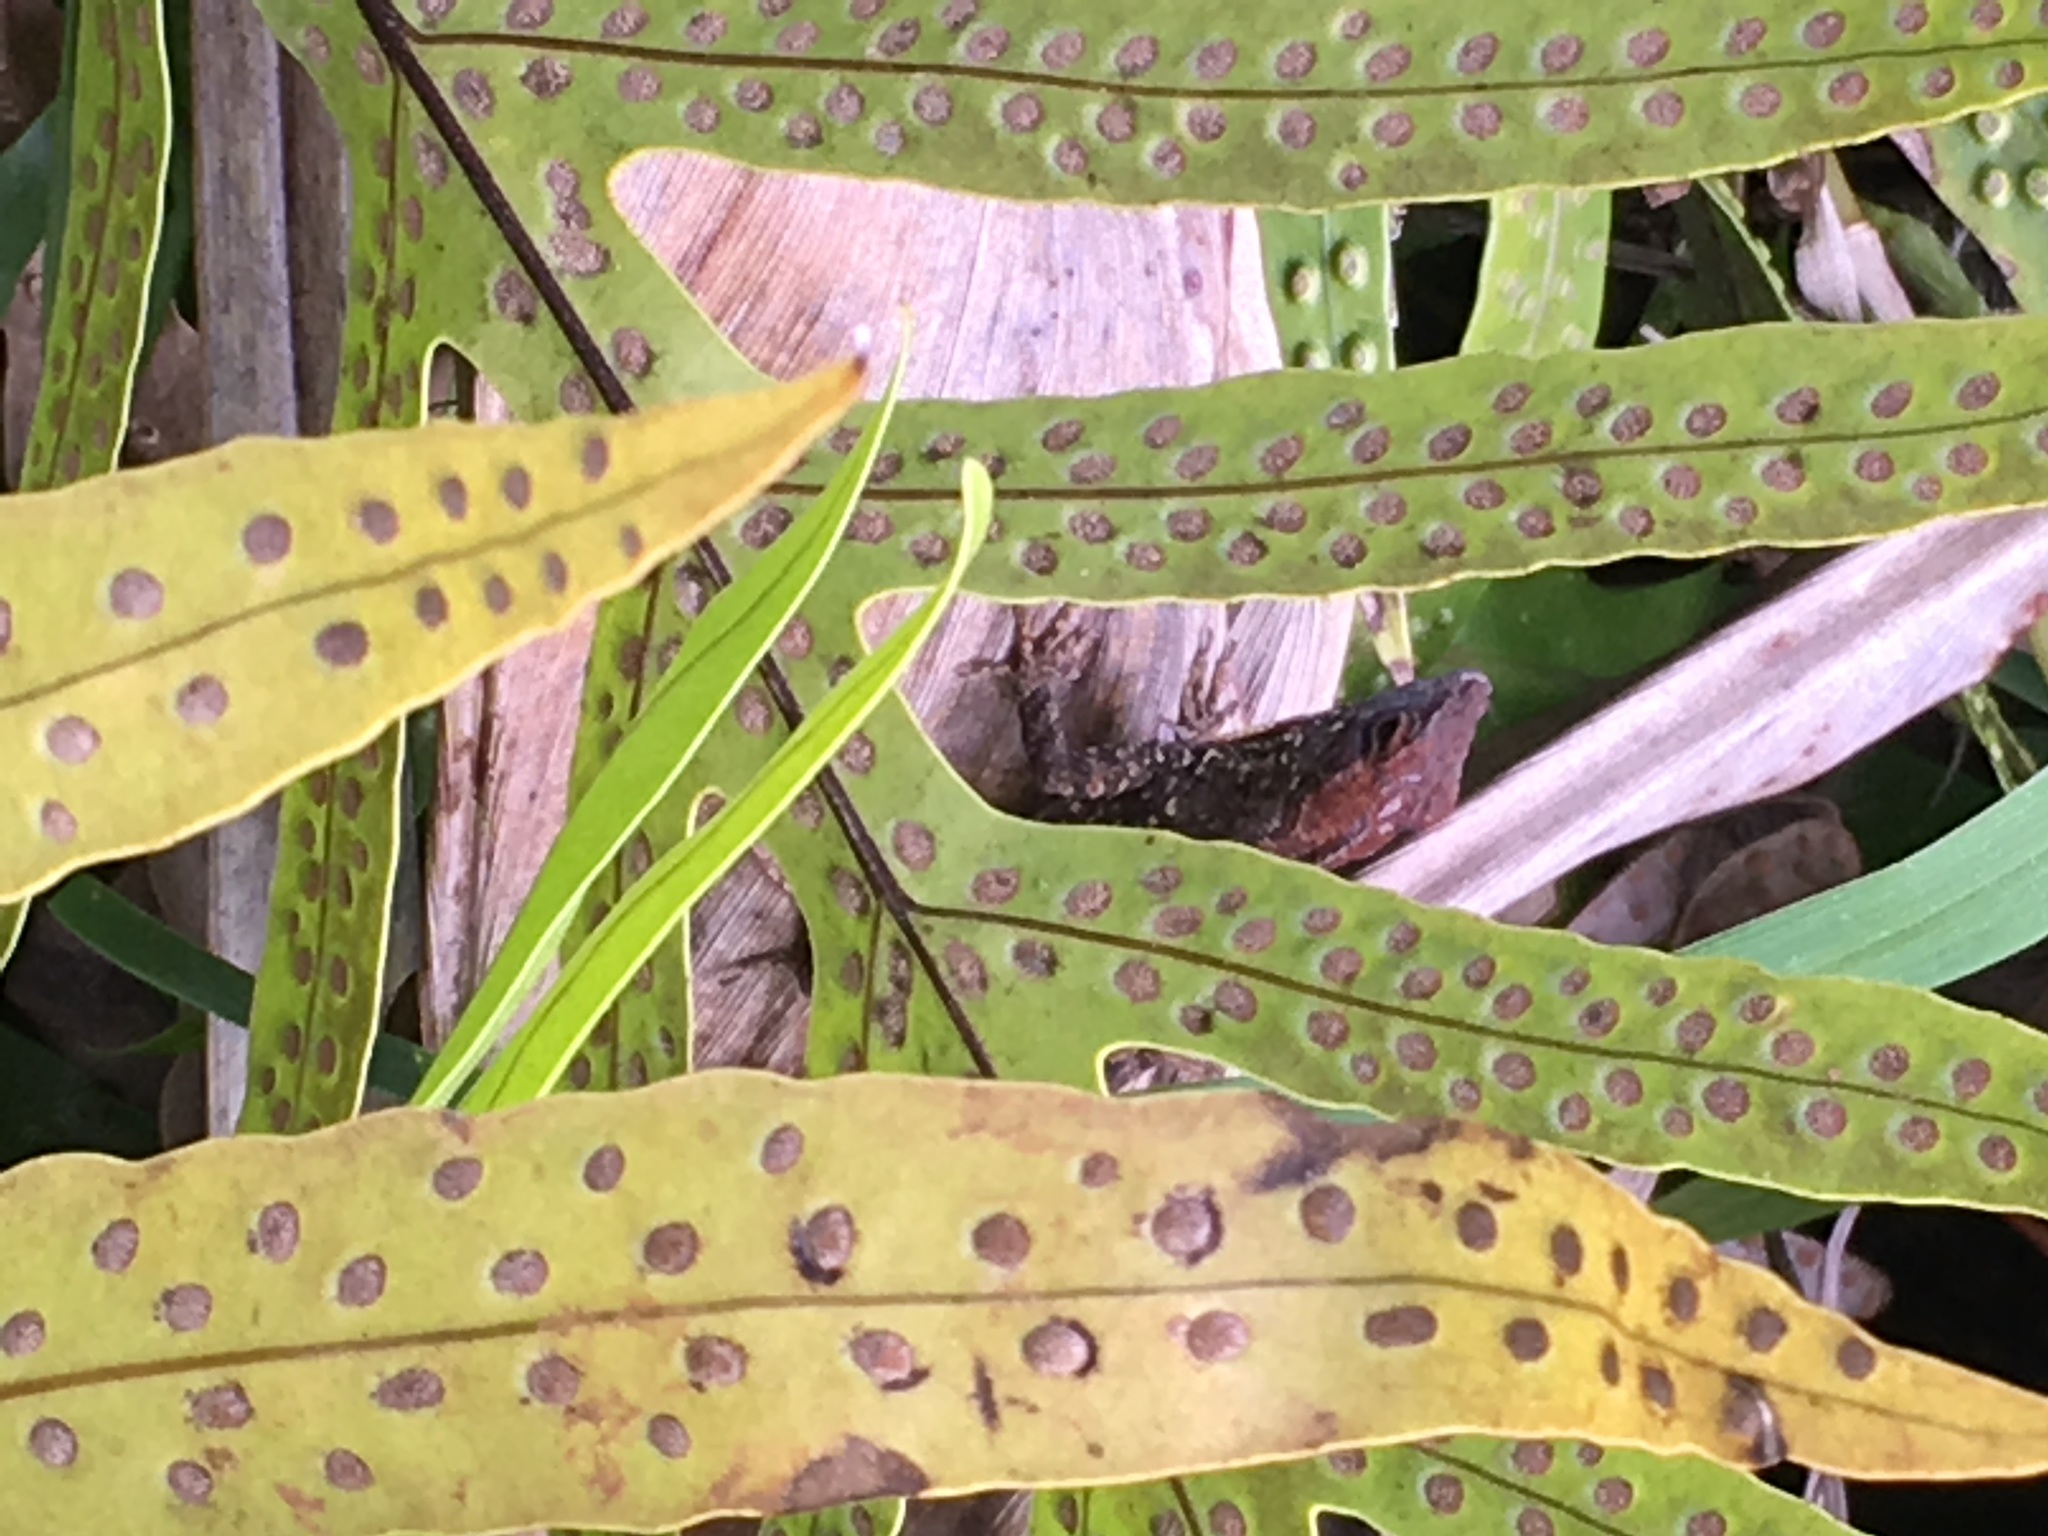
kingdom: Animalia
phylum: Chordata
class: Squamata
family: Dactyloidae
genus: Anolis
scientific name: Anolis sagrei
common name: Brown anole
